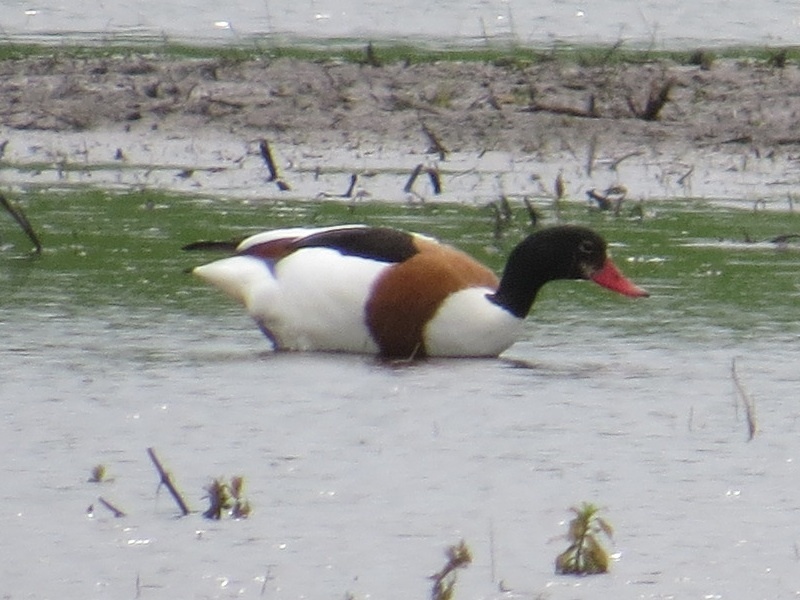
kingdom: Animalia
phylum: Chordata
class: Aves
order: Anseriformes
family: Anatidae
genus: Tadorna
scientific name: Tadorna tadorna
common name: Common shelduck
